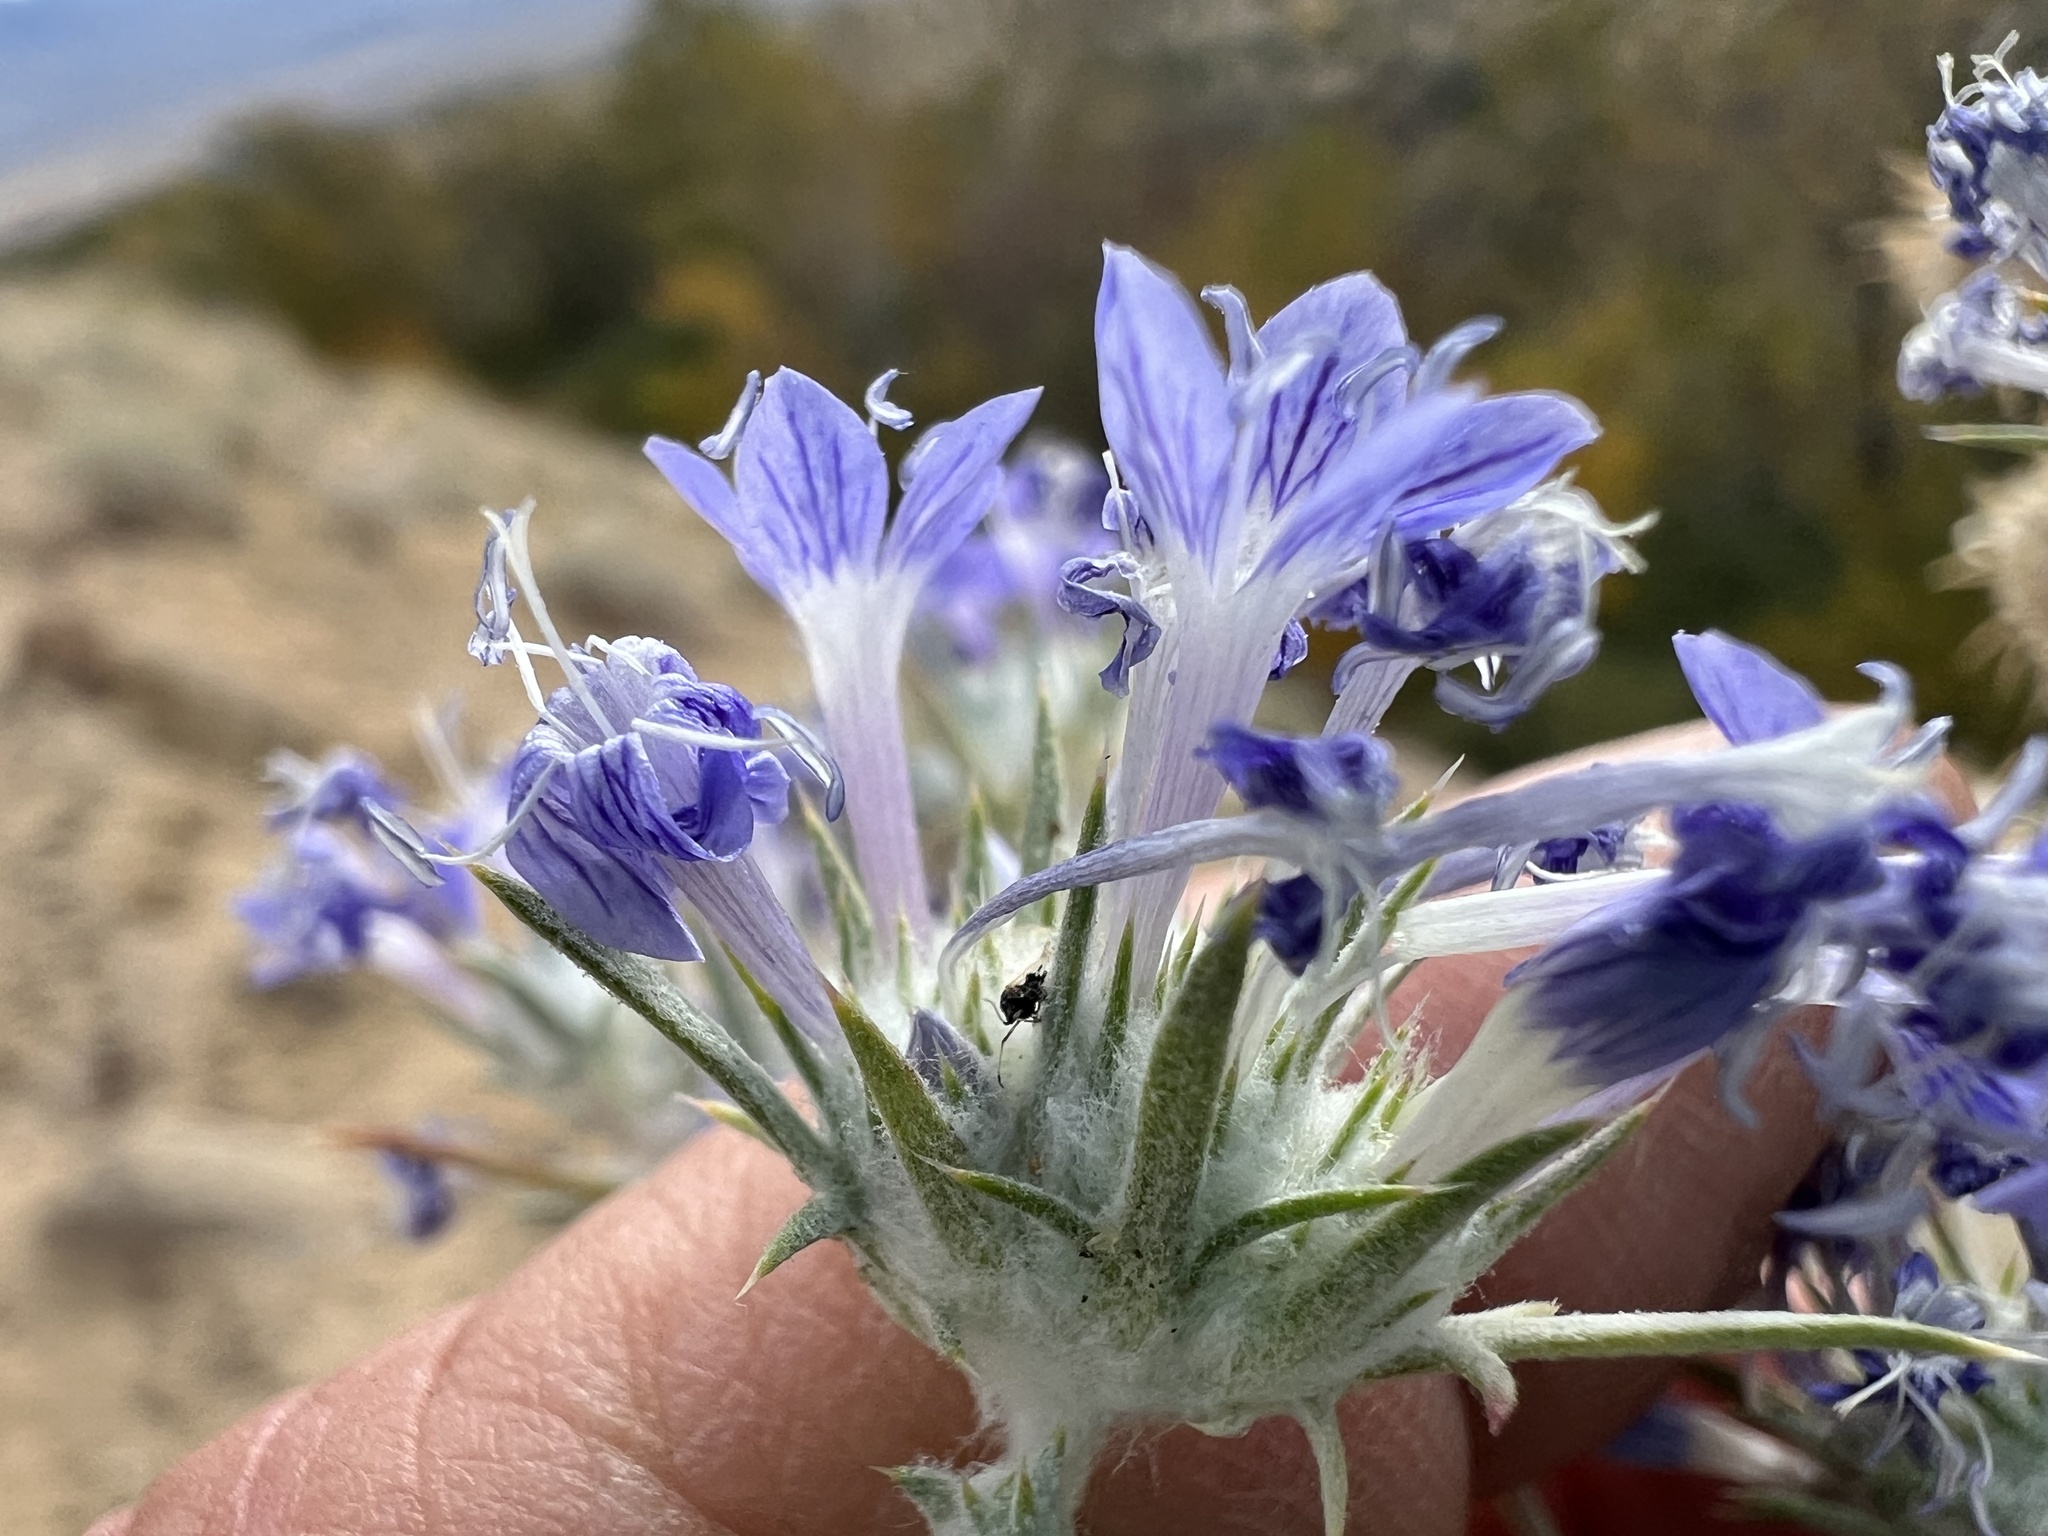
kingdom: Plantae
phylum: Tracheophyta
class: Magnoliopsida
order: Ericales
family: Polemoniaceae
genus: Eriastrum
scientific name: Eriastrum densifolium
